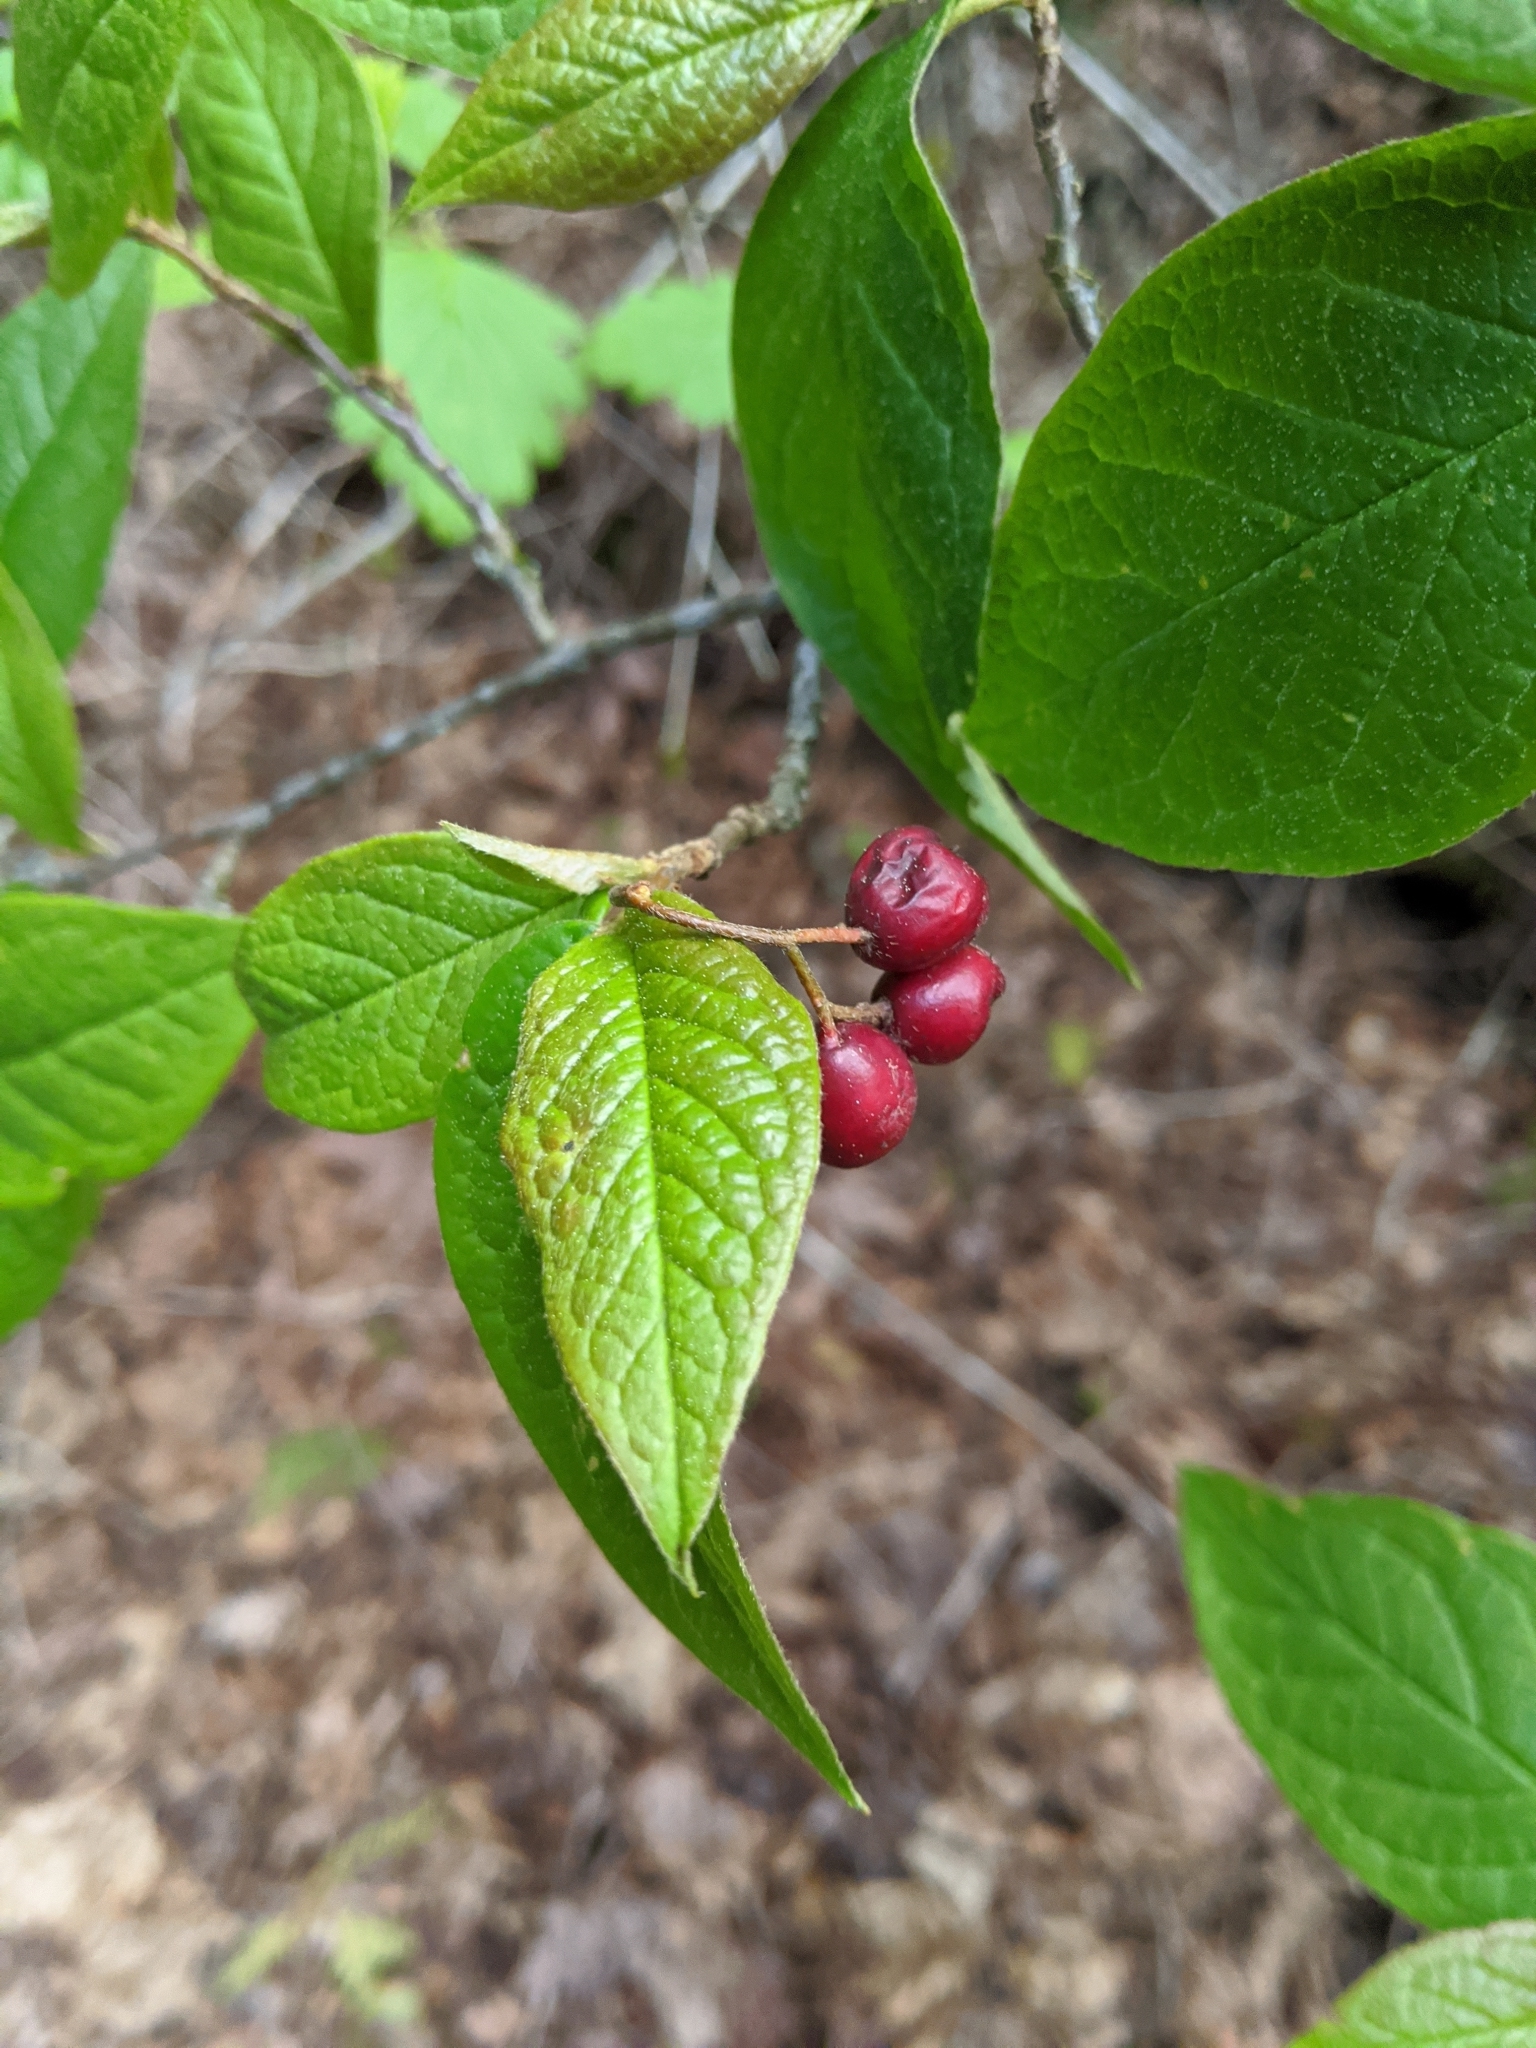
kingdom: Plantae
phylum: Tracheophyta
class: Magnoliopsida
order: Rosales
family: Rosaceae
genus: Cotoneaster
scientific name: Cotoneaster bullatus
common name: Hollyberry cotoneaster
